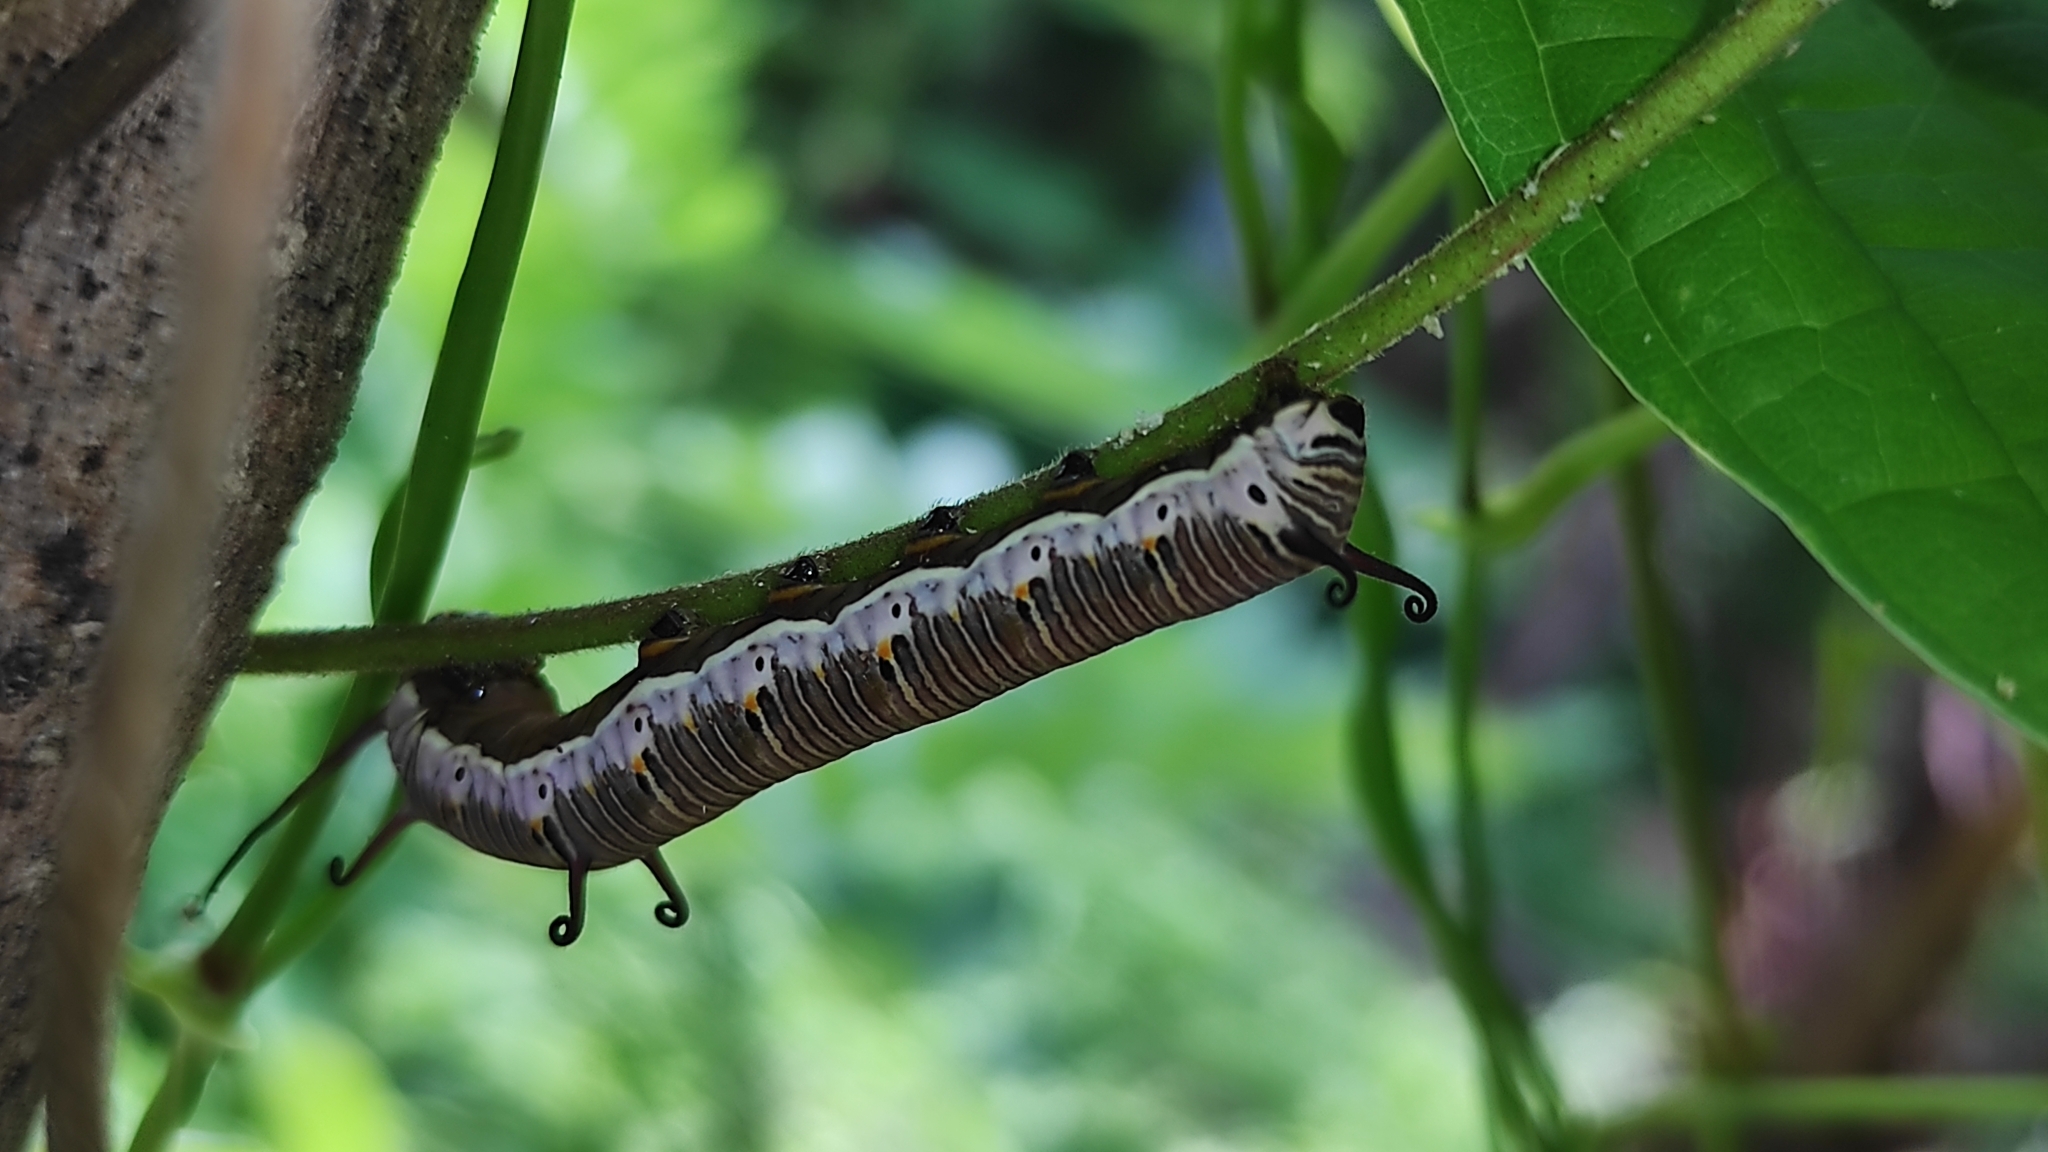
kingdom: Animalia
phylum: Arthropoda
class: Insecta
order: Lepidoptera
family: Nymphalidae
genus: Euploea
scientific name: Euploea core
